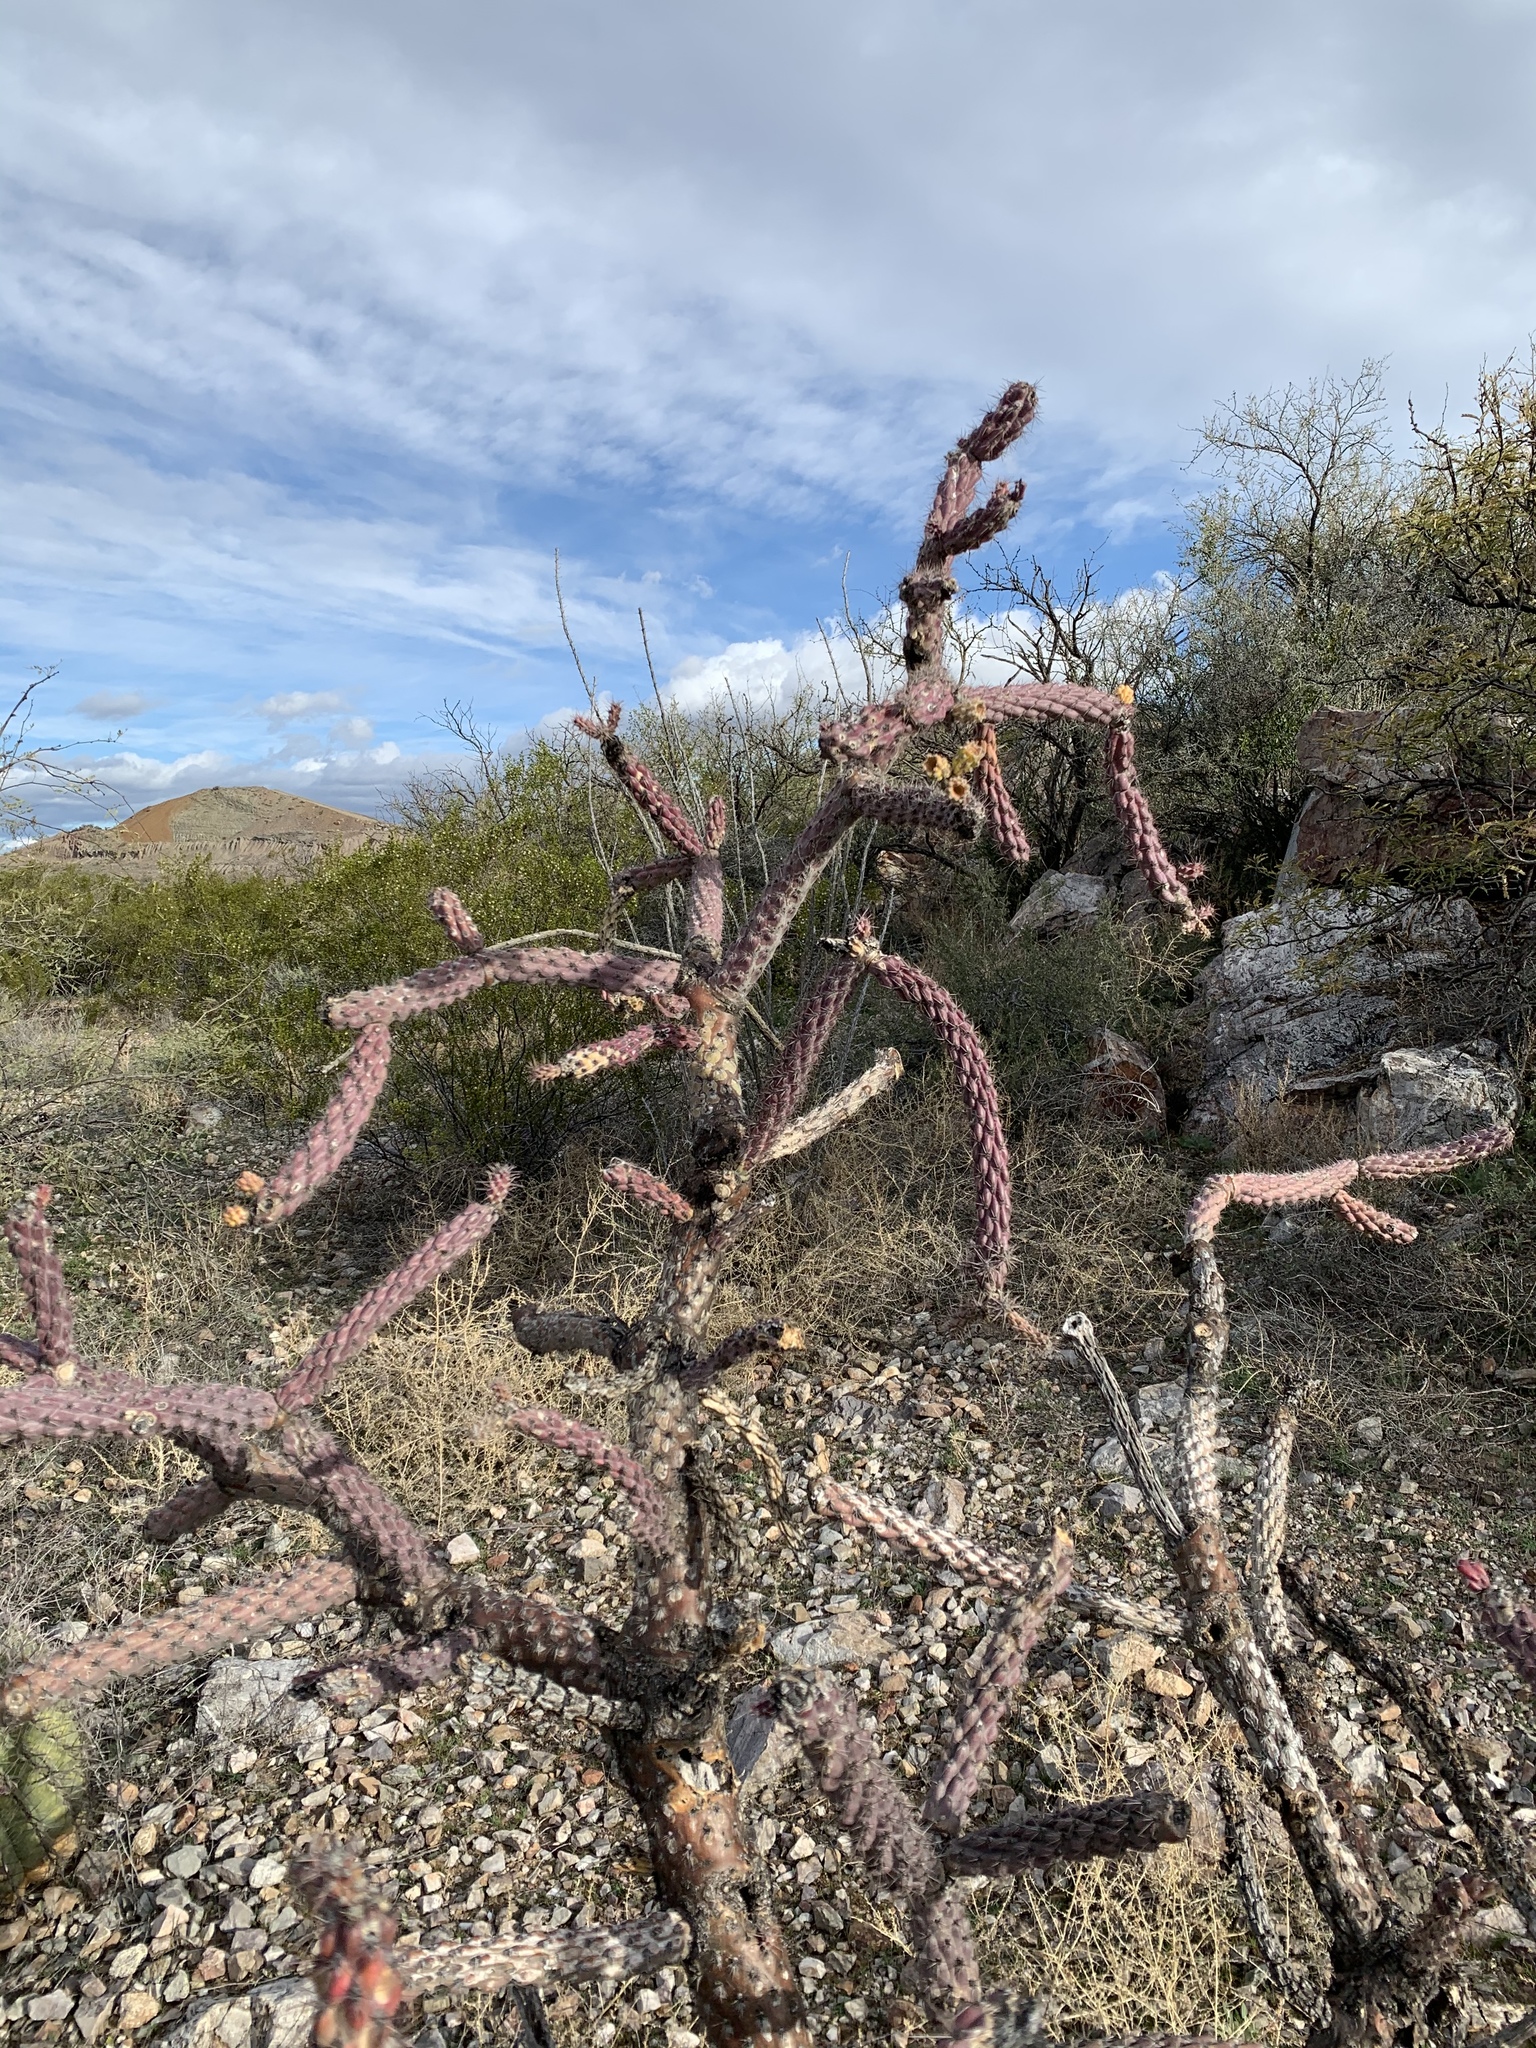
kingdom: Plantae
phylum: Tracheophyta
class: Magnoliopsida
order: Caryophyllales
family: Cactaceae
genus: Cylindropuntia
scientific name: Cylindropuntia thurberi
